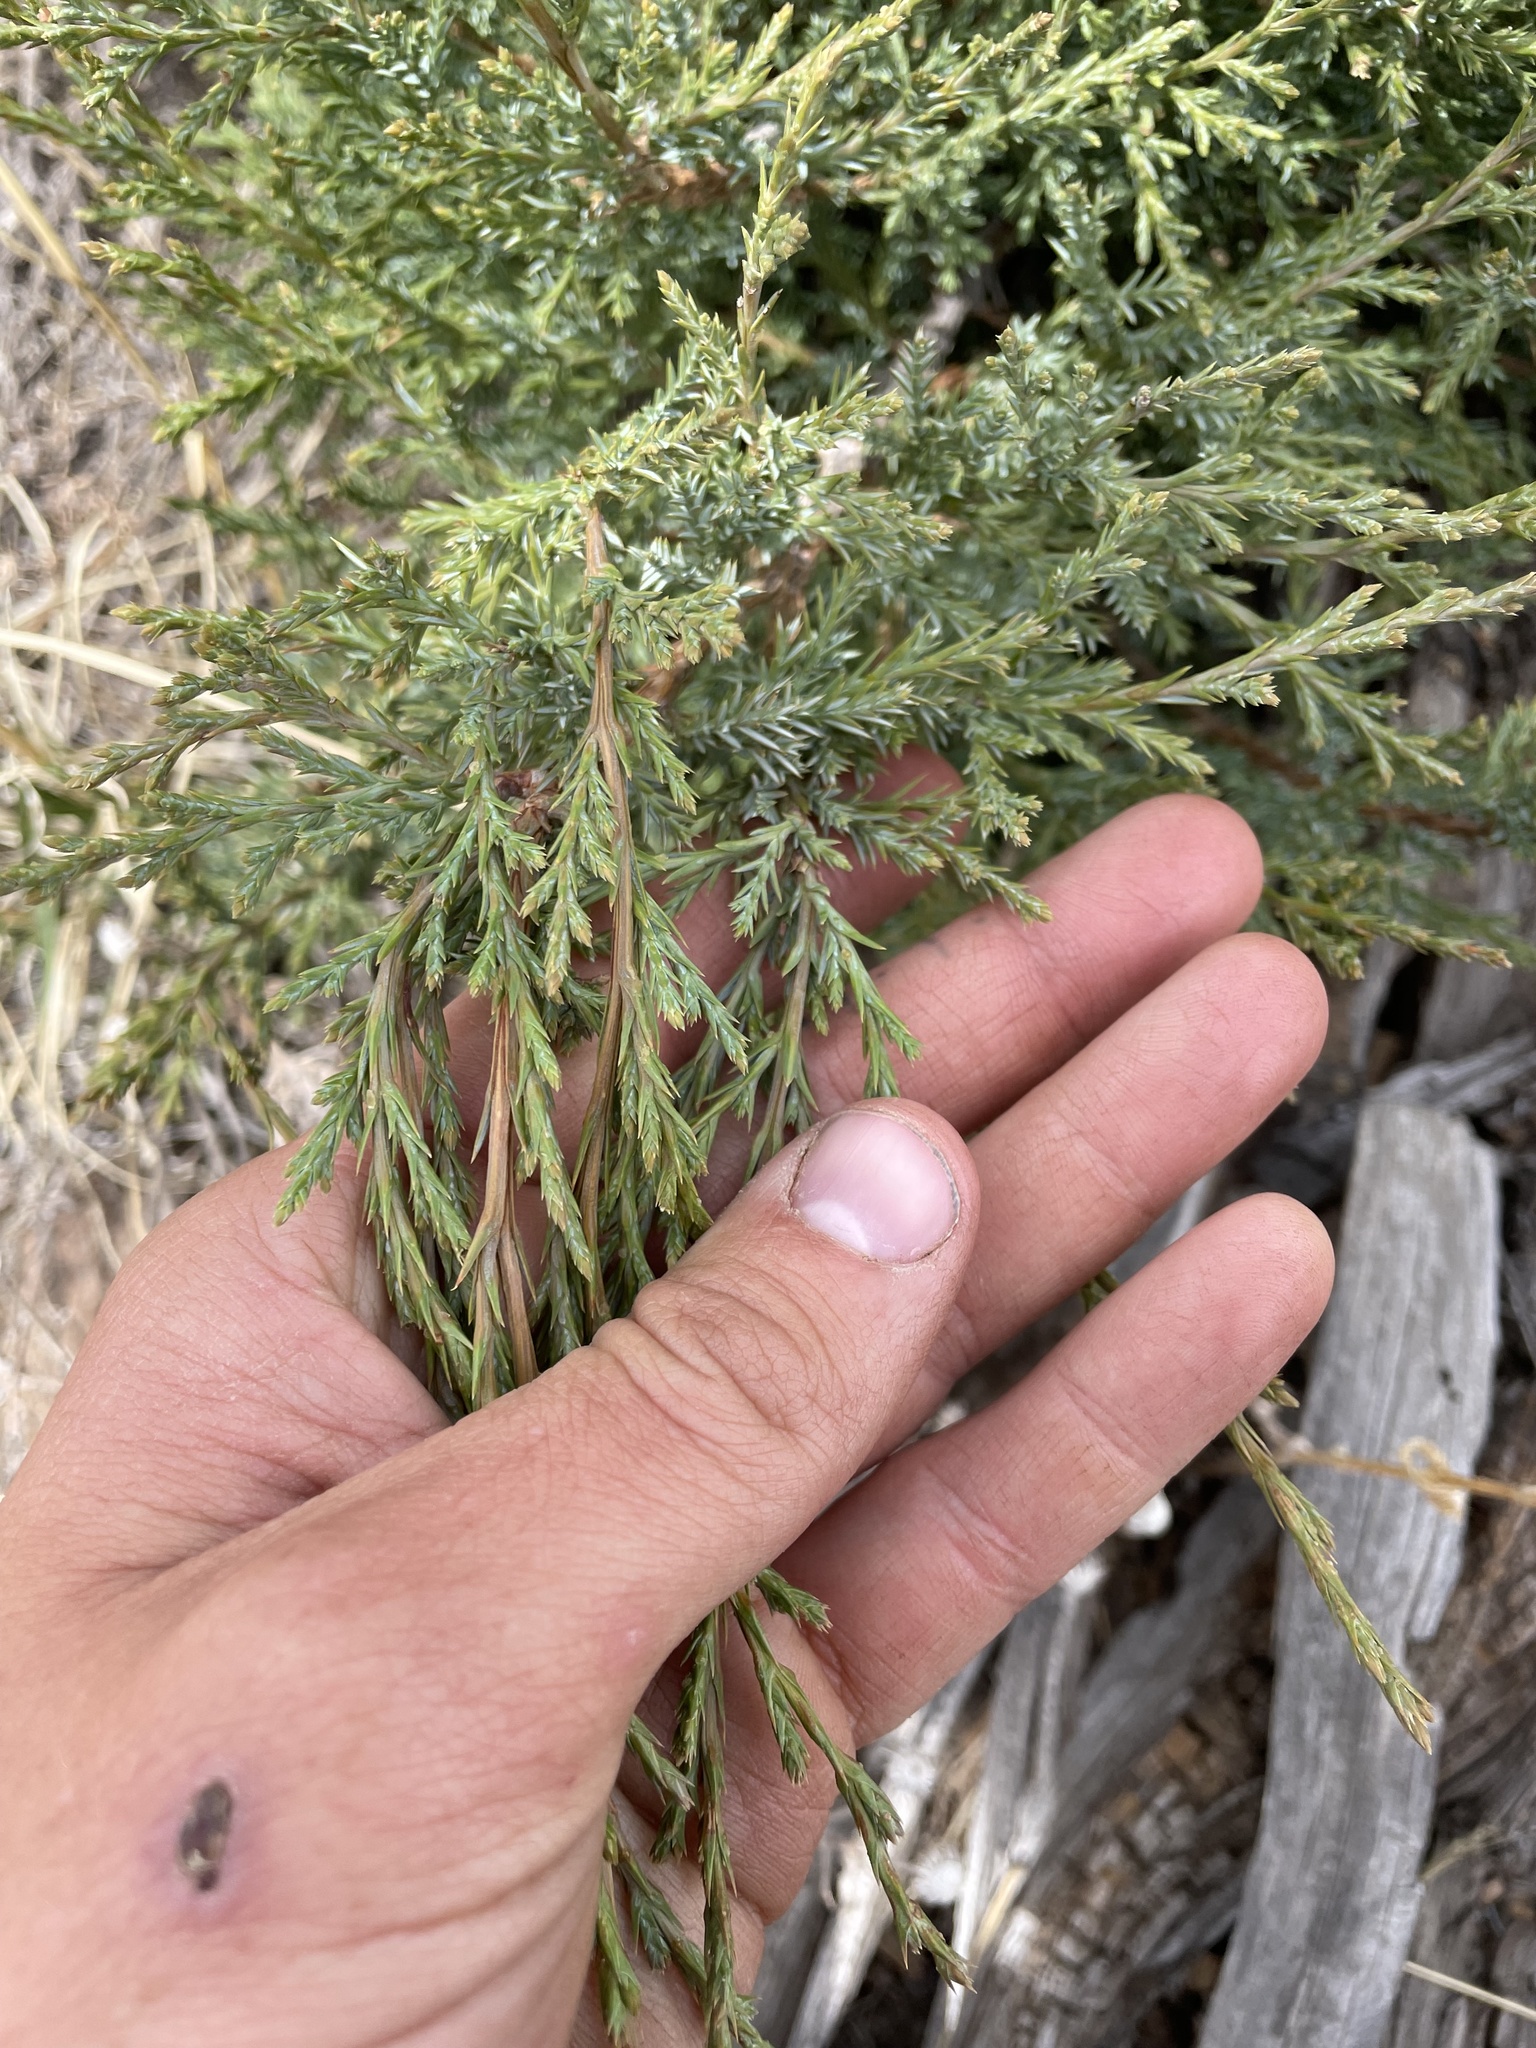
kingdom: Plantae
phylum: Tracheophyta
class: Pinopsida
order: Pinales
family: Cupressaceae
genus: Juniperus
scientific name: Juniperus scopulorum
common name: Rocky mountain juniper
